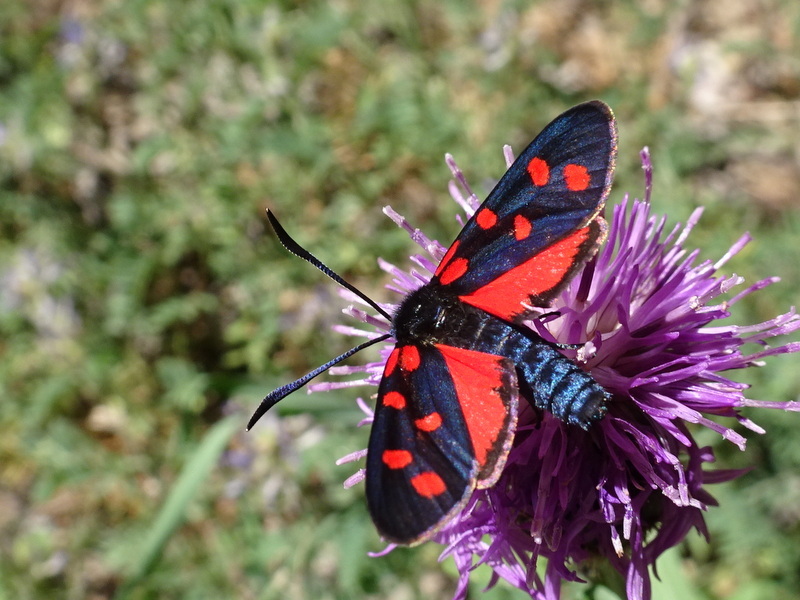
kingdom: Animalia
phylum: Arthropoda
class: Insecta
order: Lepidoptera
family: Zygaenidae
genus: Zygaena
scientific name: Zygaena transalpina
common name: Southern six spot burnet
